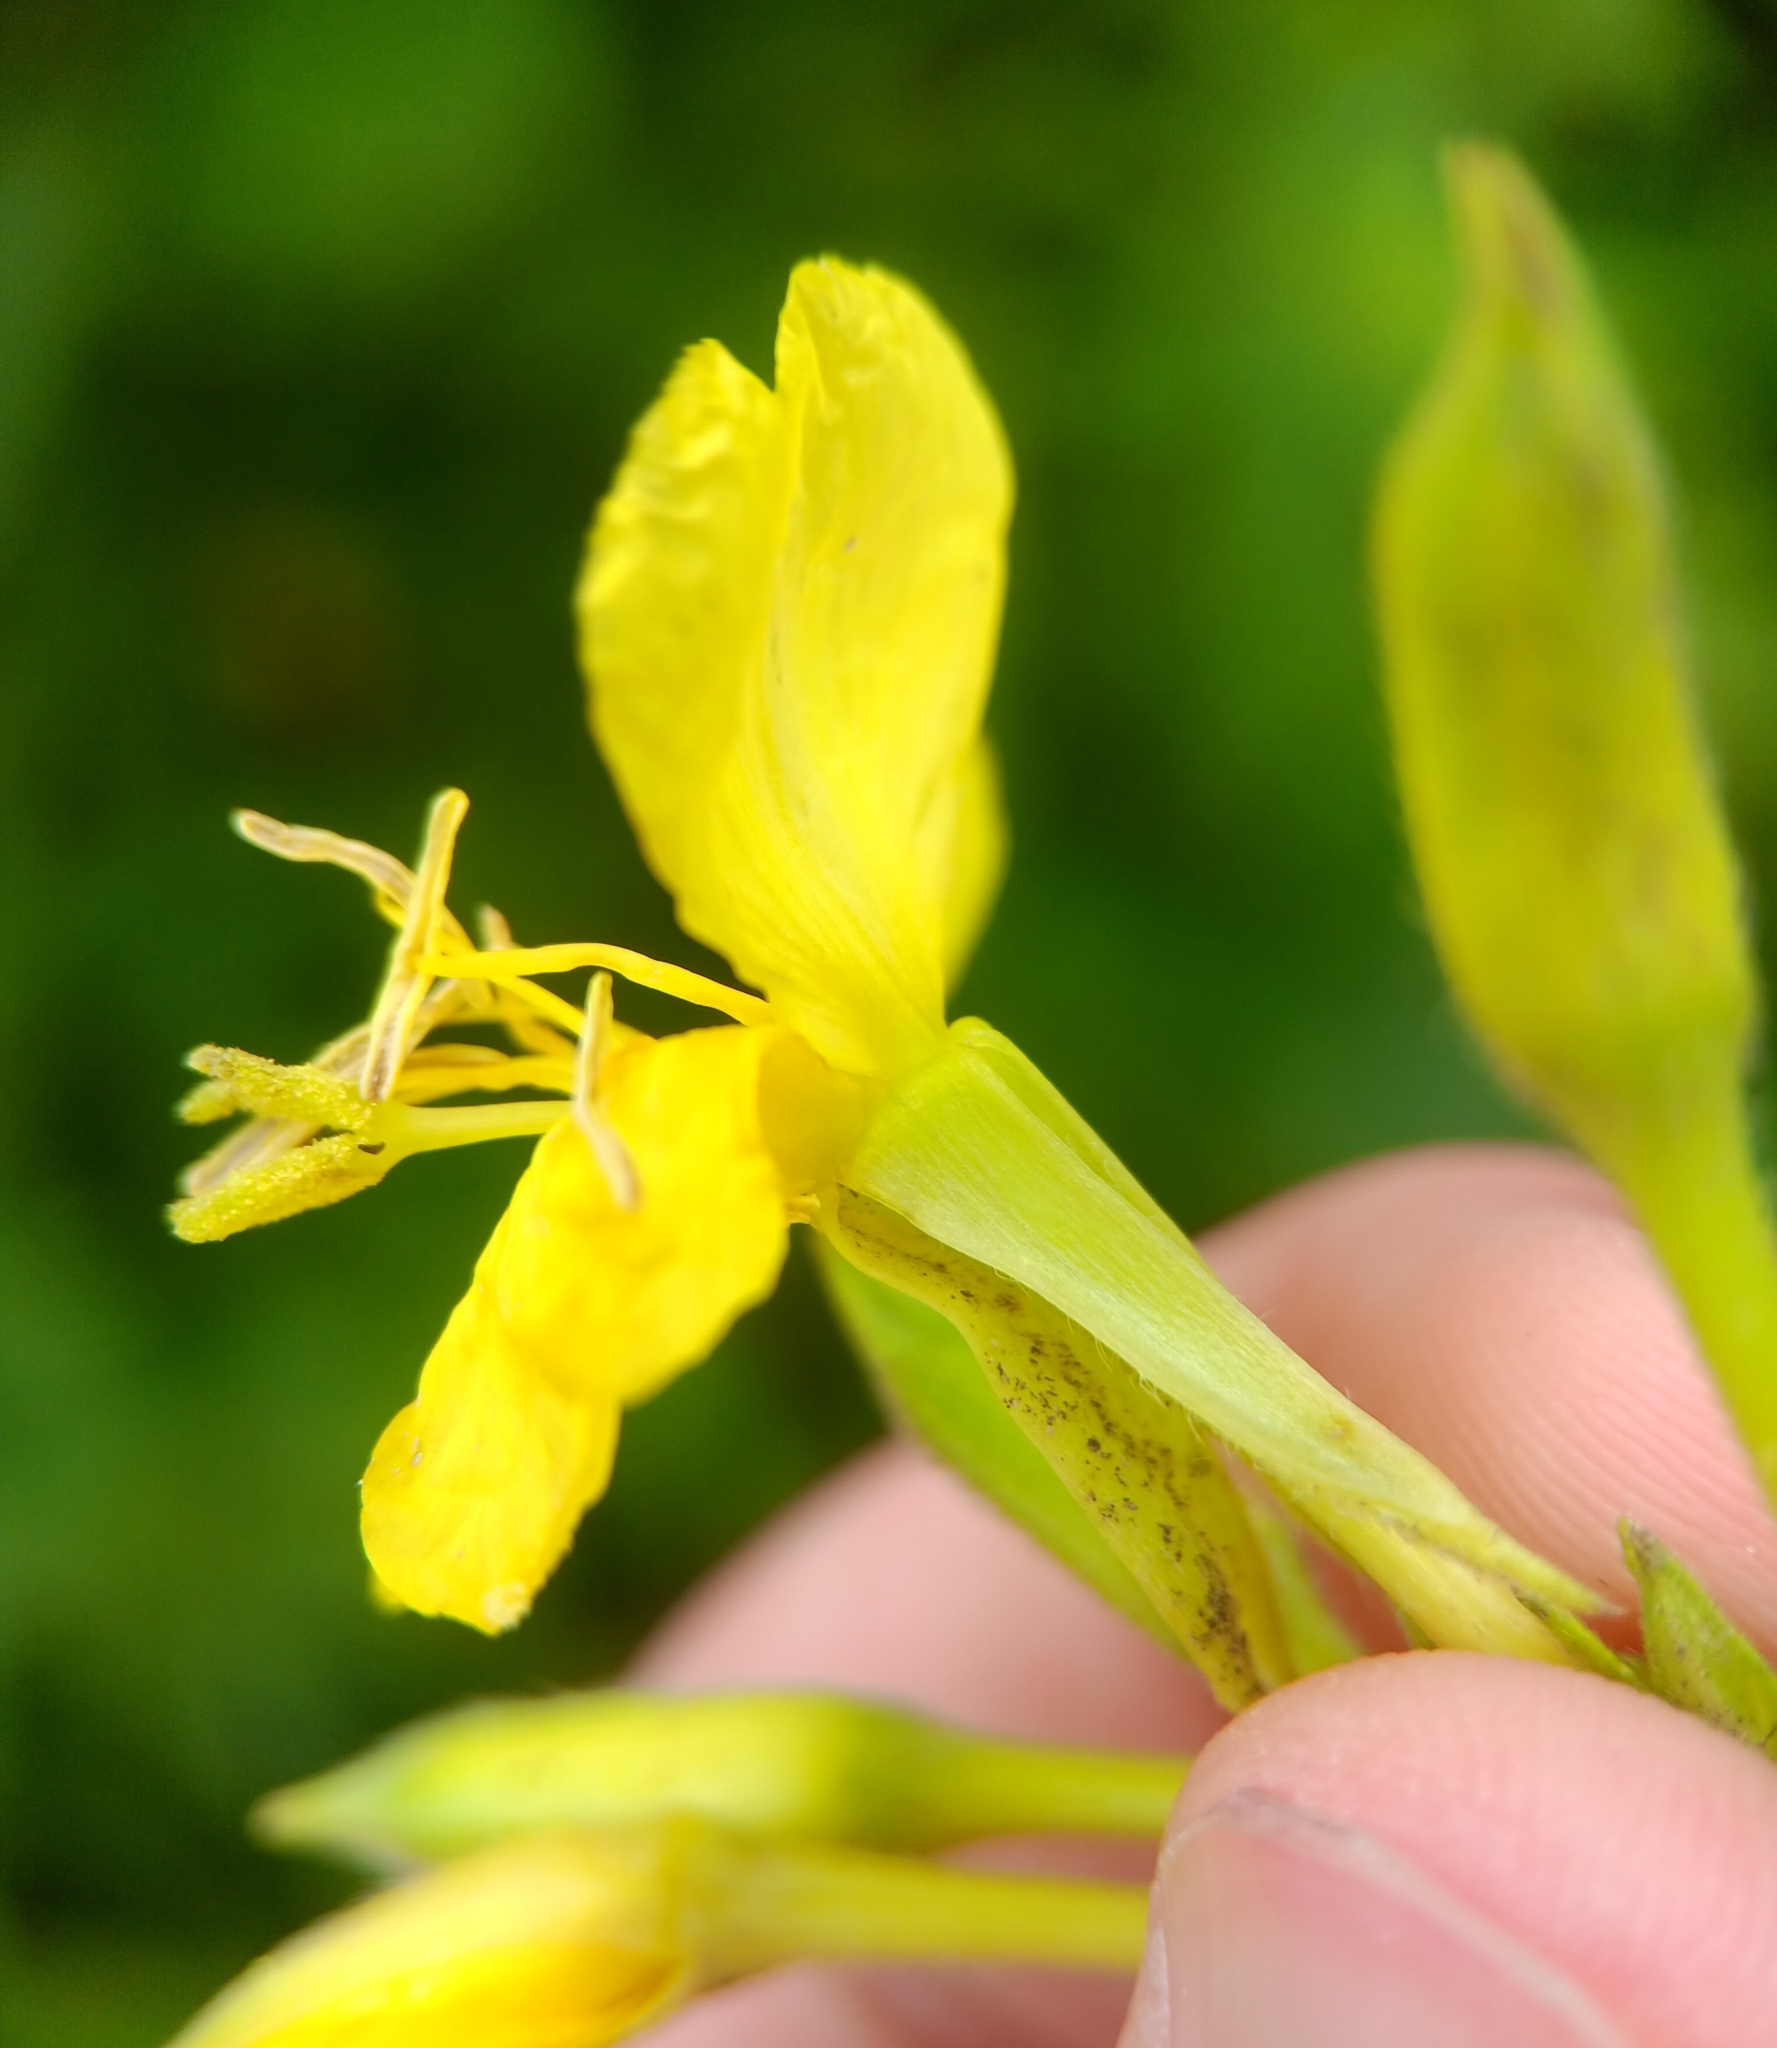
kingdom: Plantae
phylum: Tracheophyta
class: Magnoliopsida
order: Myrtales
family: Onagraceae
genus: Oenothera
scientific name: Oenothera biennis
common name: Common evening-primrose
